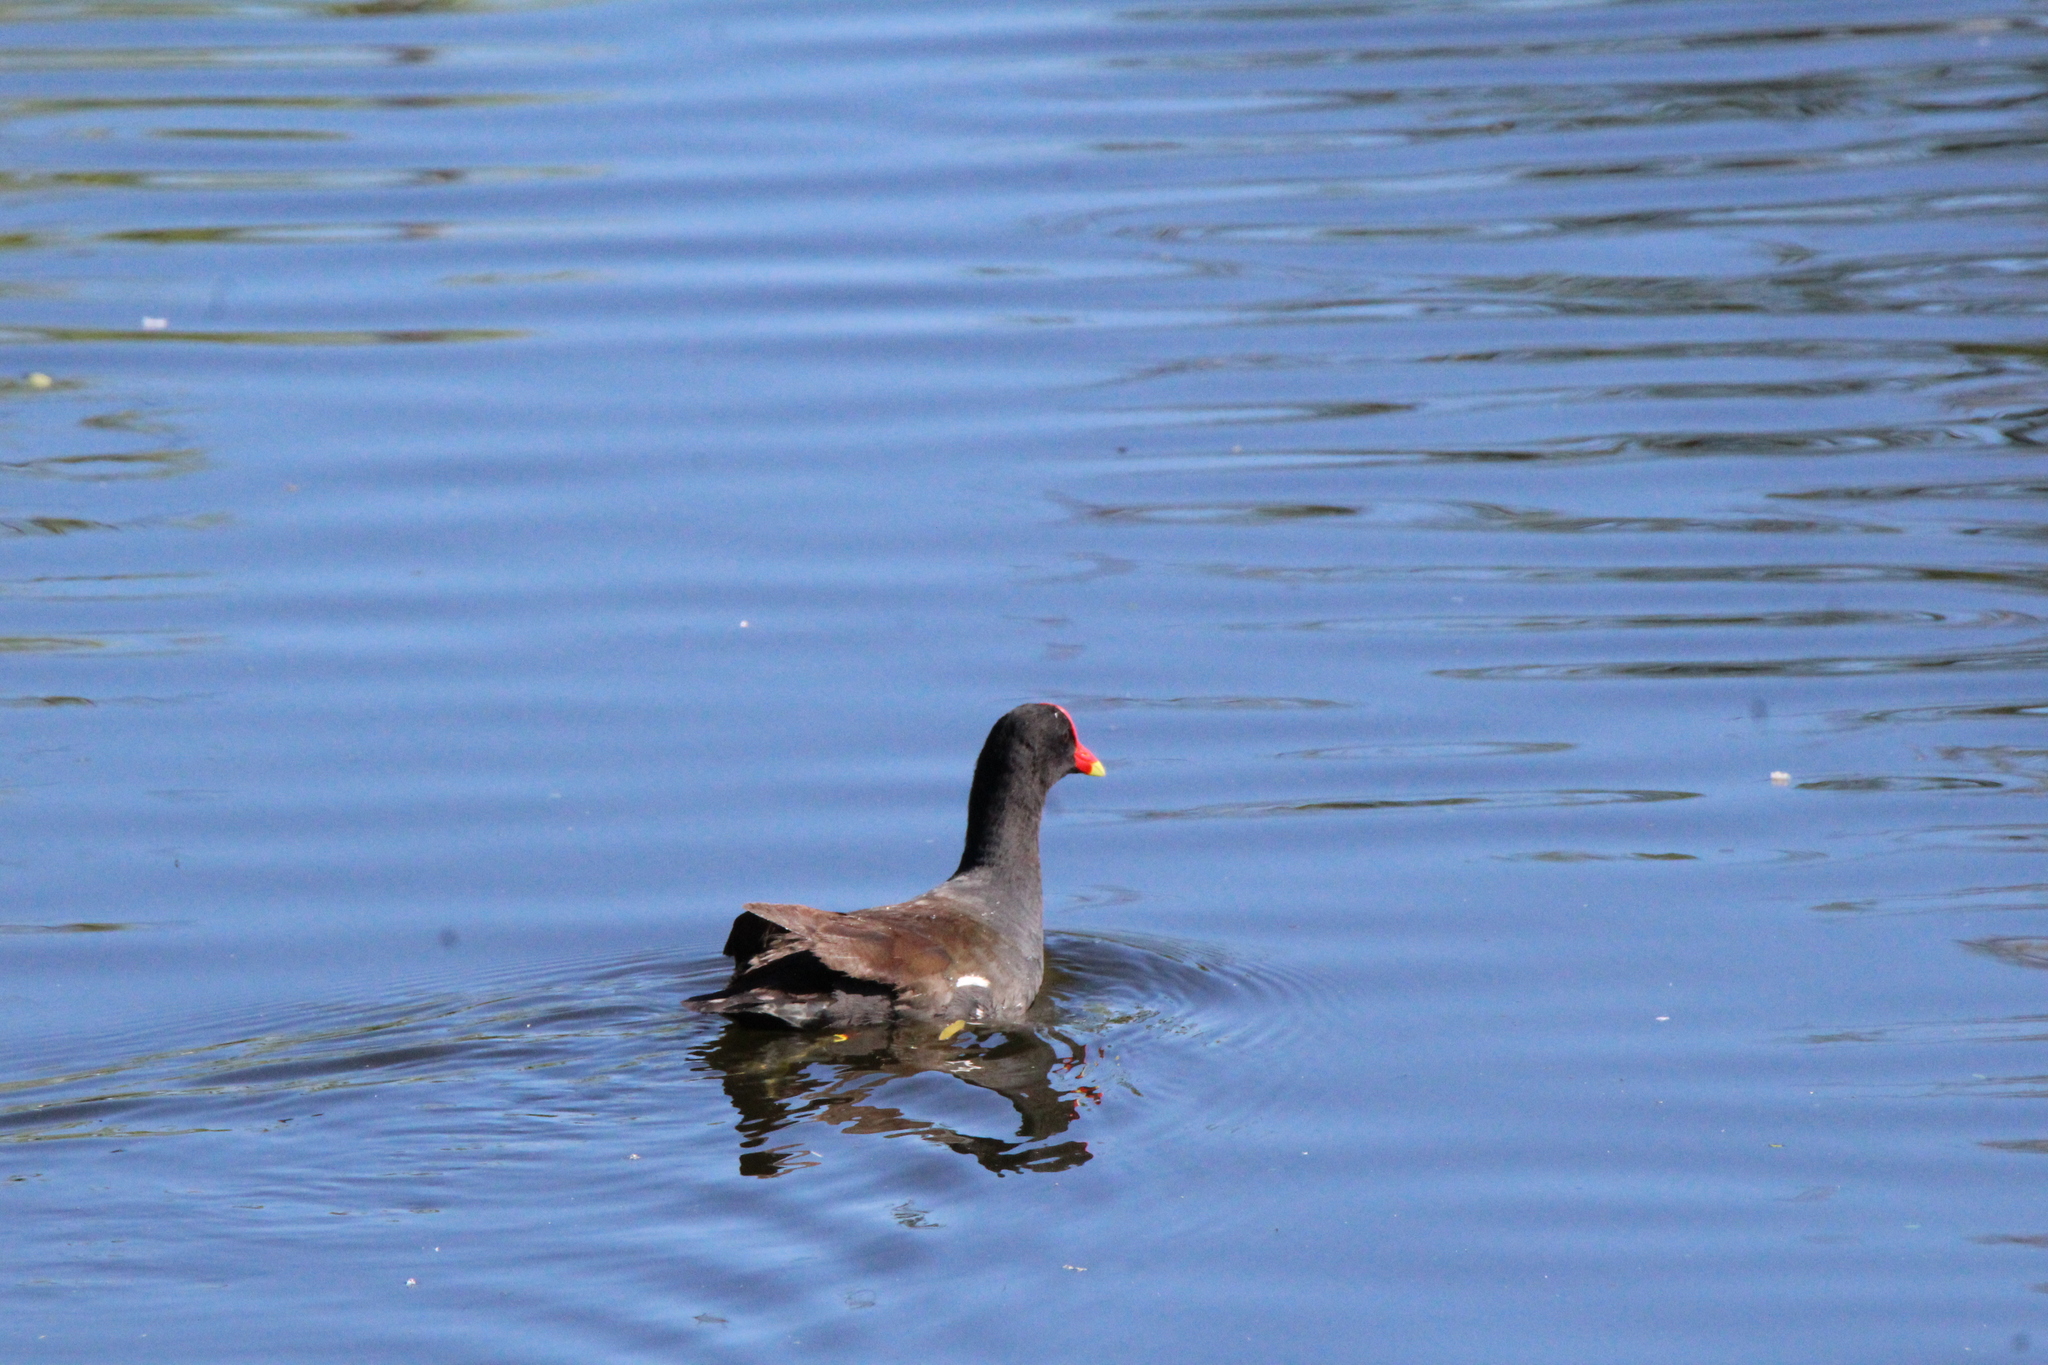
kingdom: Animalia
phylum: Chordata
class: Aves
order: Gruiformes
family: Rallidae
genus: Gallinula
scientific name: Gallinula chloropus
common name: Common moorhen
